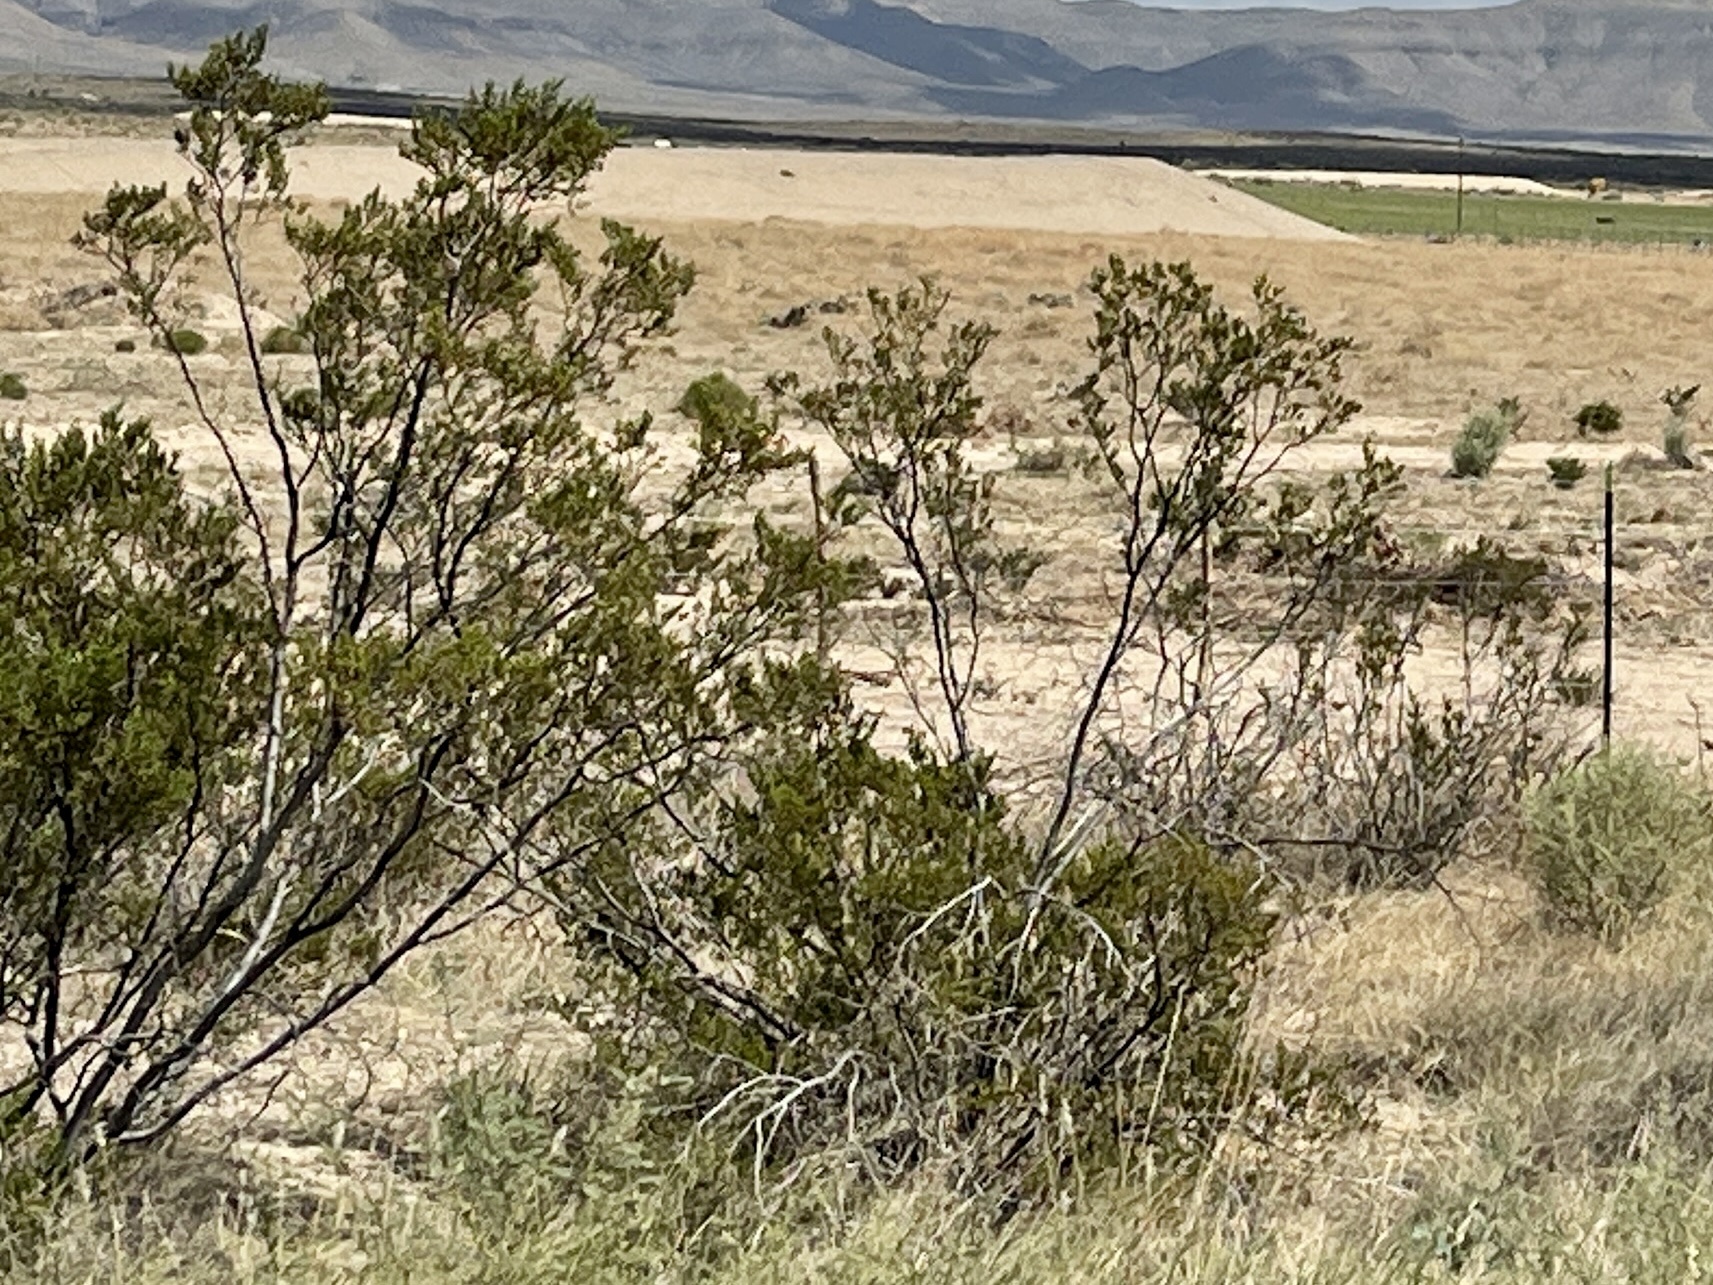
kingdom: Plantae
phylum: Tracheophyta
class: Magnoliopsida
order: Zygophyllales
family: Zygophyllaceae
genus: Larrea
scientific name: Larrea tridentata
